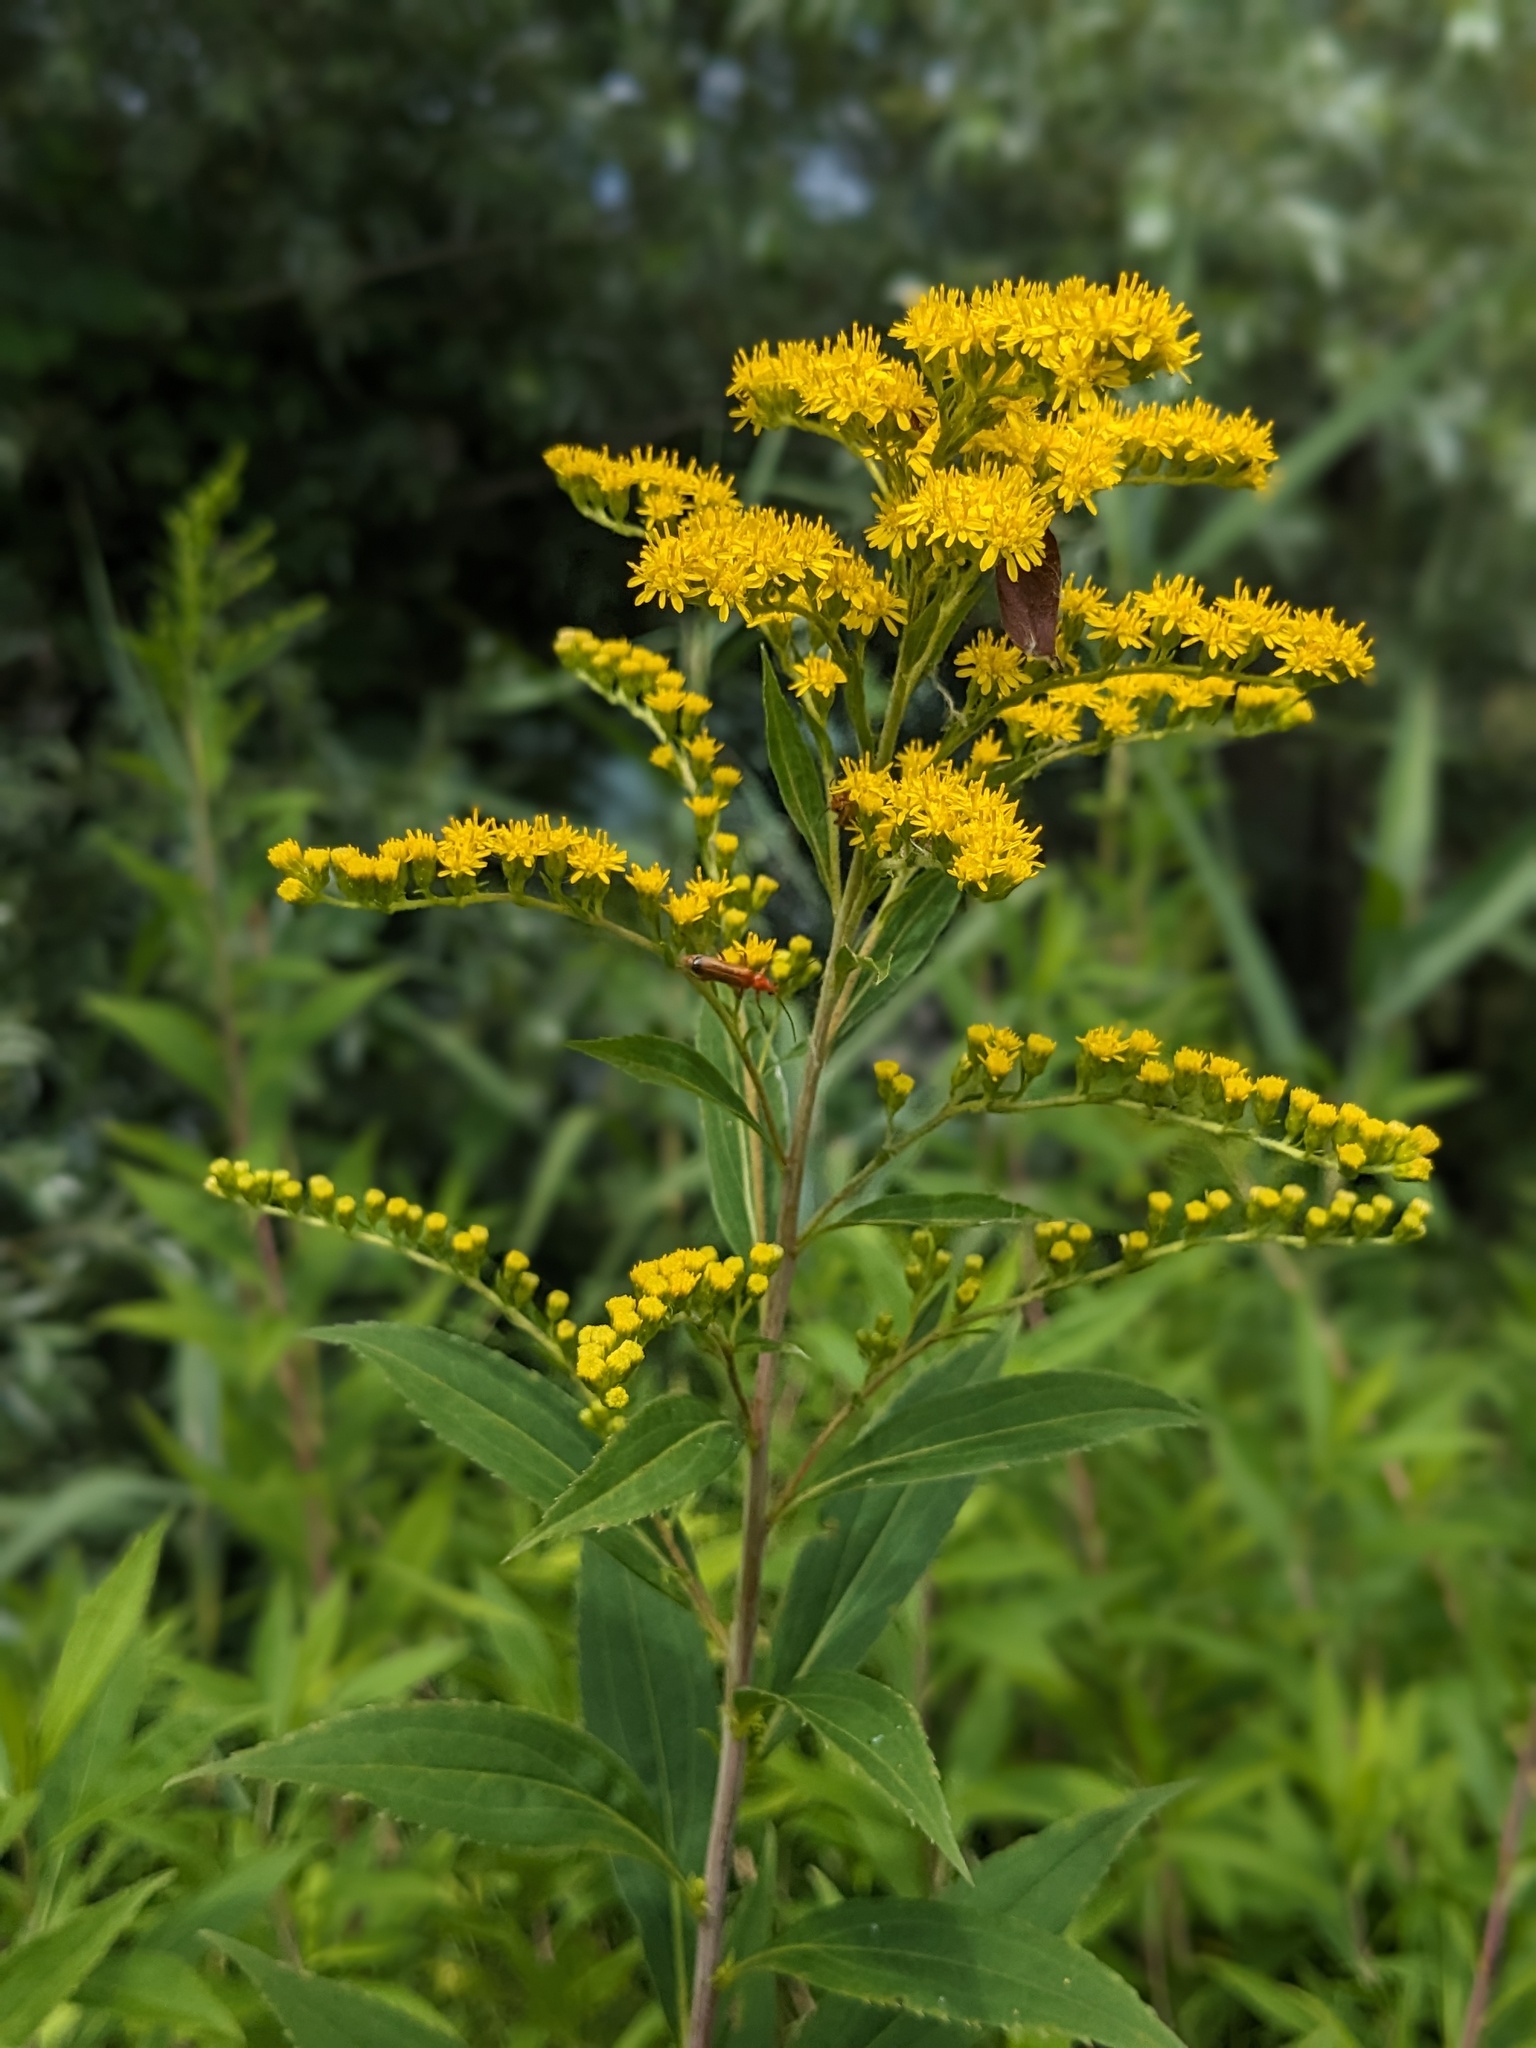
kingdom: Plantae
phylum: Tracheophyta
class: Magnoliopsida
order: Asterales
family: Asteraceae
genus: Solidago
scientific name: Solidago gigantea
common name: Giant goldenrod
